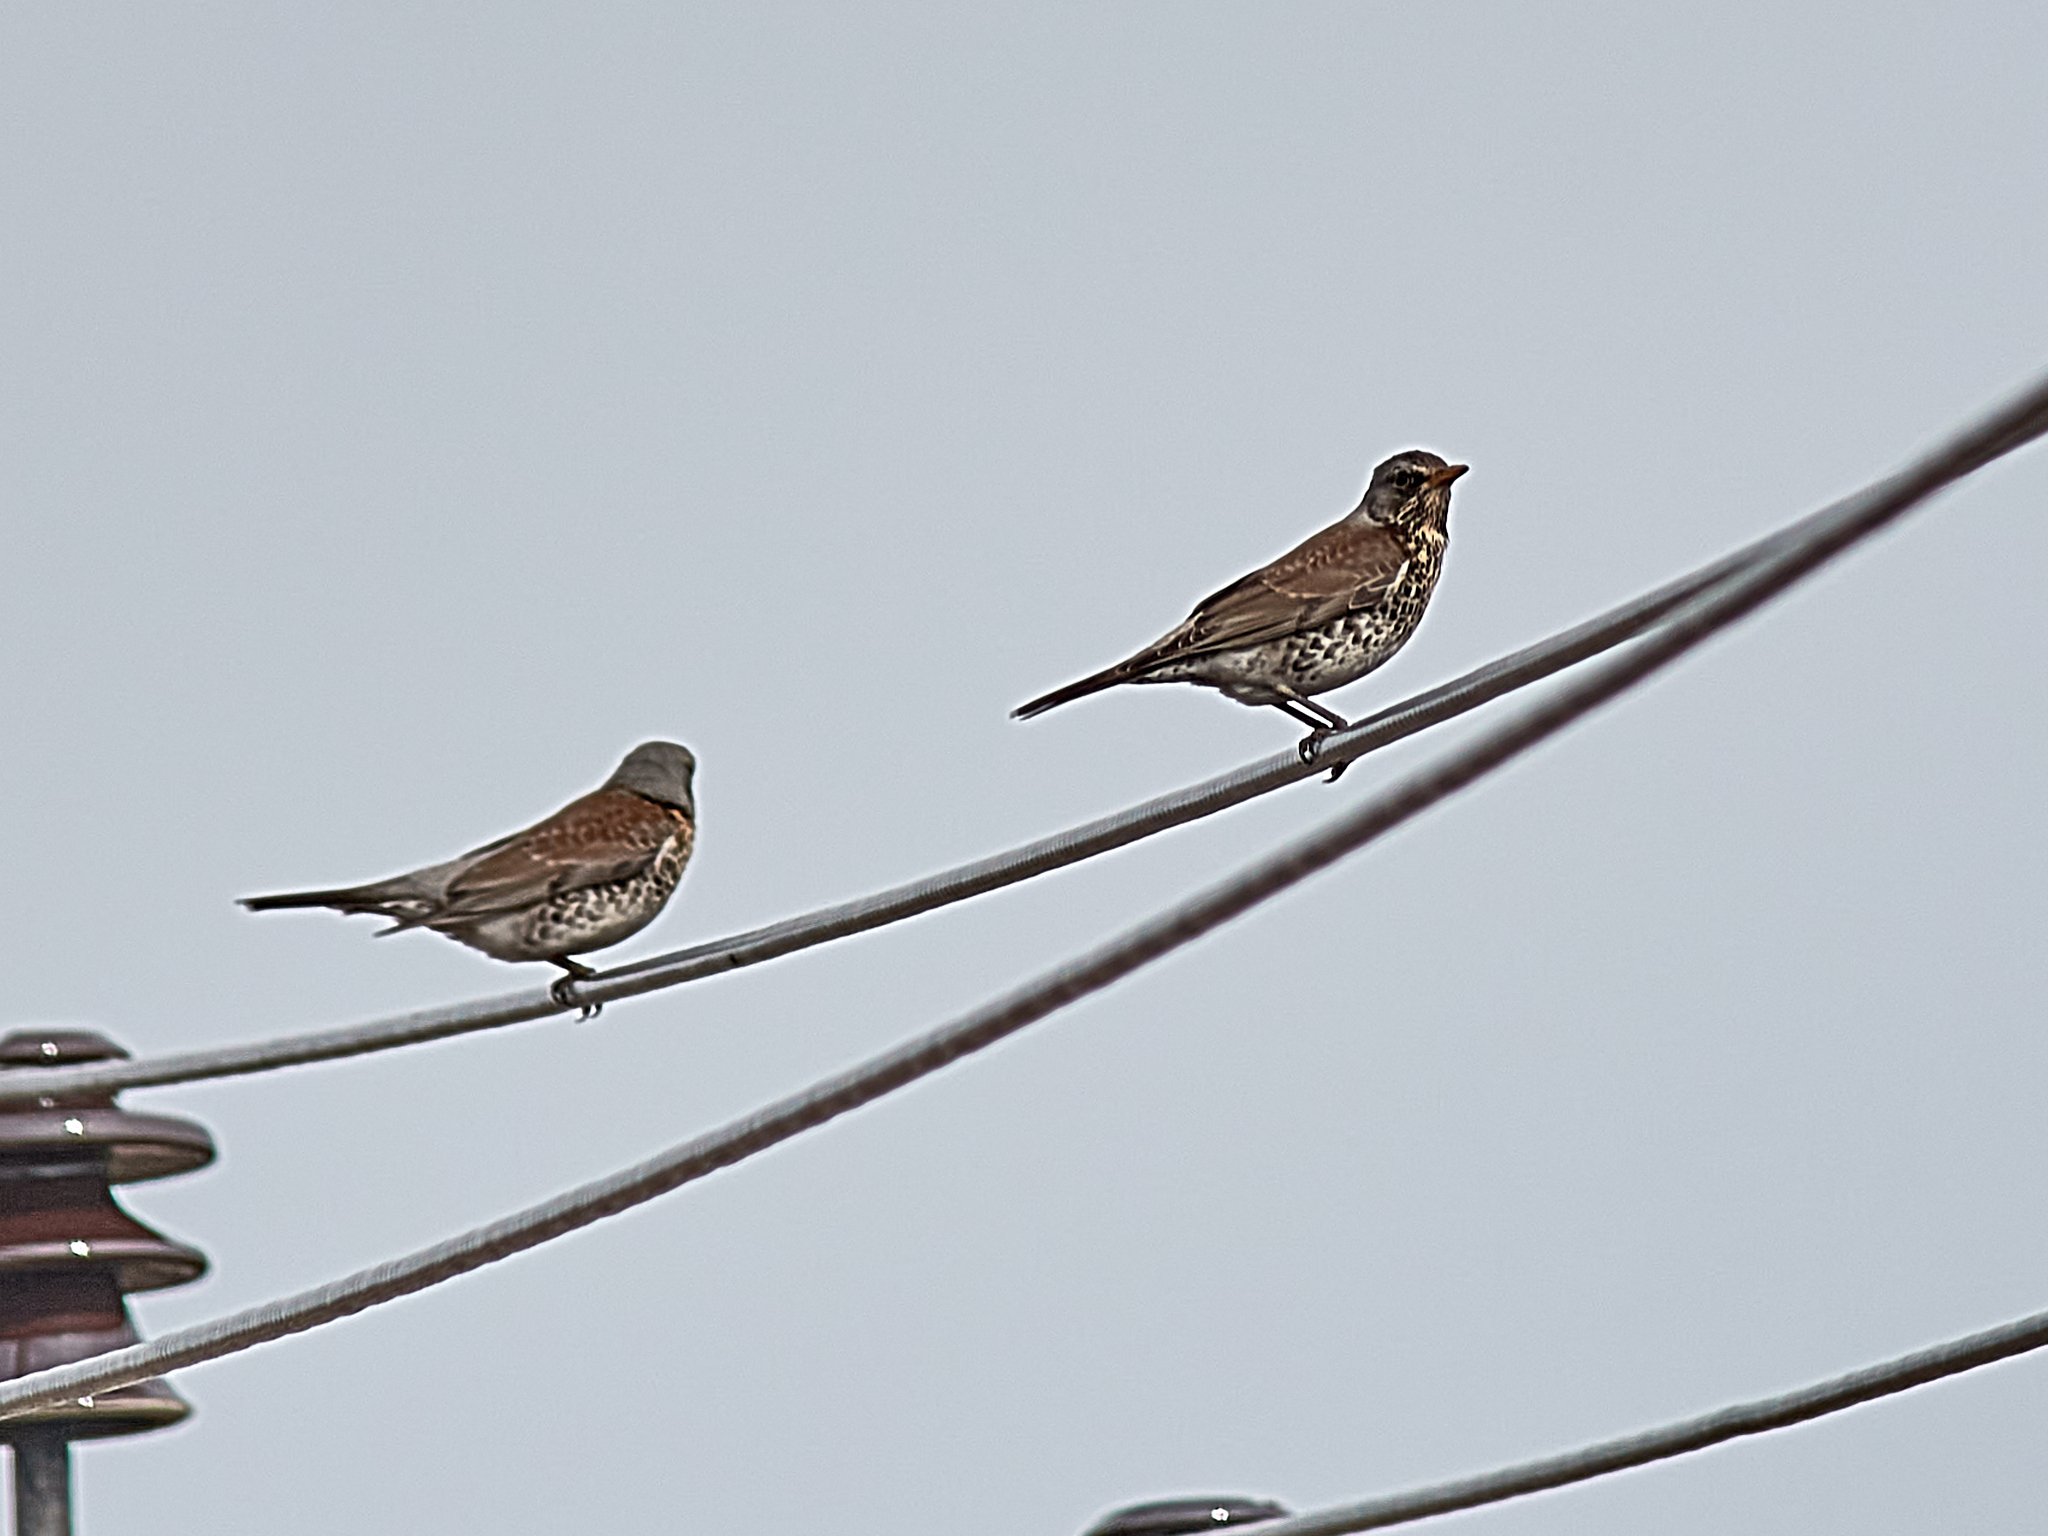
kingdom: Animalia
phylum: Chordata
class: Aves
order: Passeriformes
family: Turdidae
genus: Turdus
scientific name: Turdus pilaris
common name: Fieldfare
